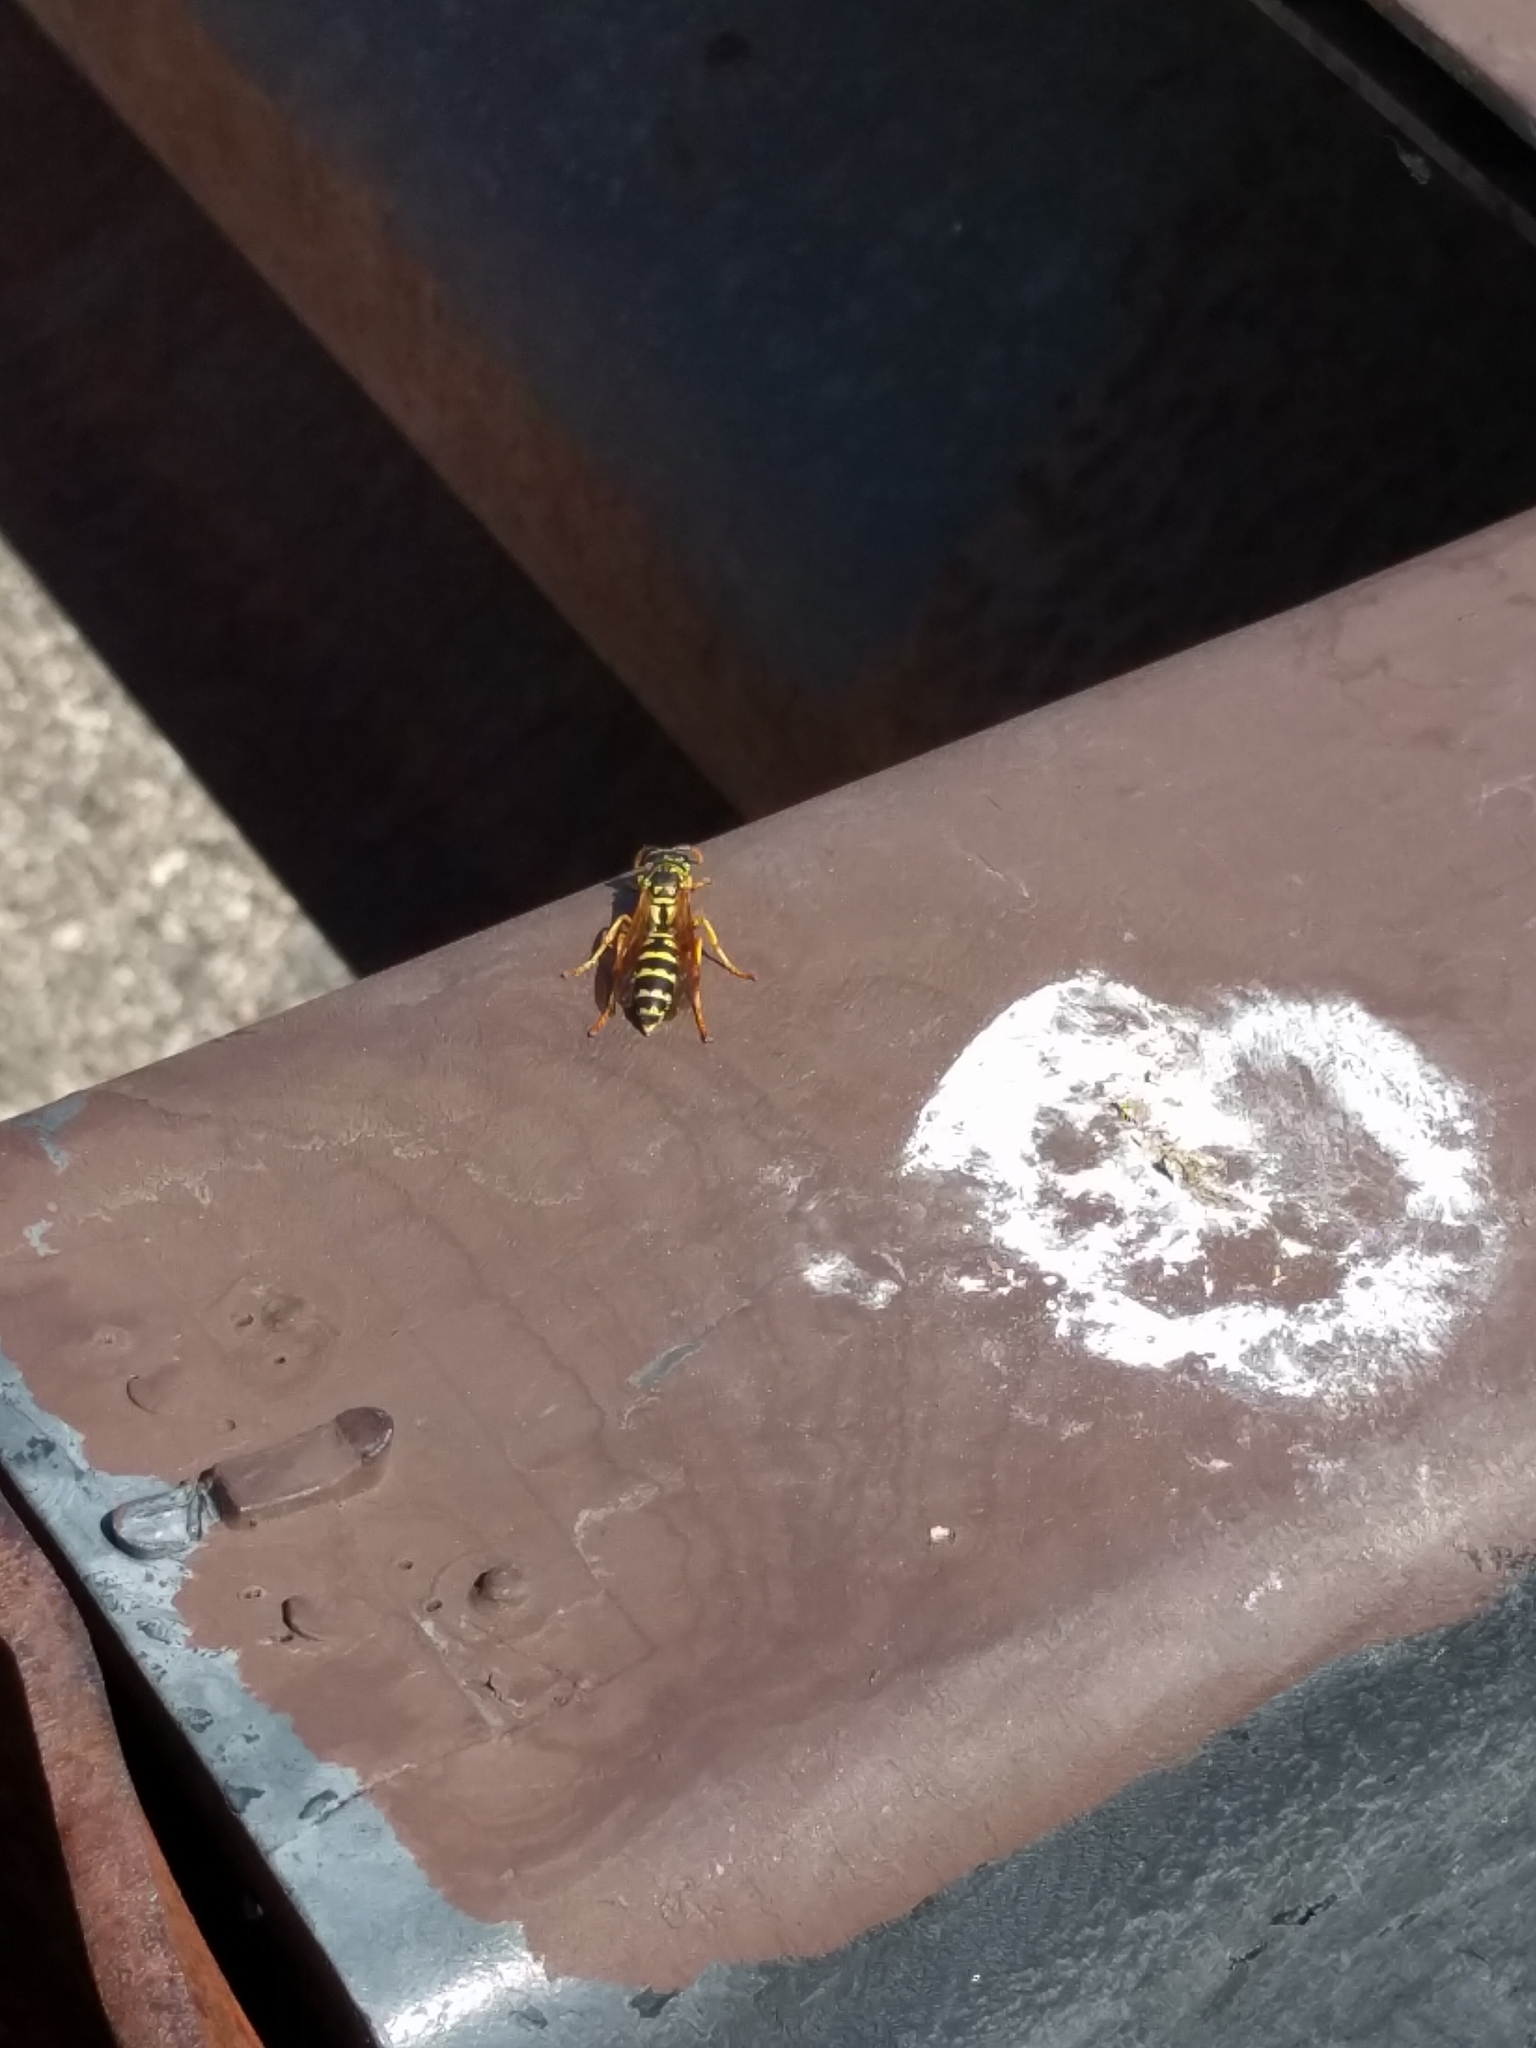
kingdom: Animalia
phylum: Arthropoda
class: Insecta
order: Hymenoptera
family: Eumenidae
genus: Polistes
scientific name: Polistes dominula
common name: Paper wasp
